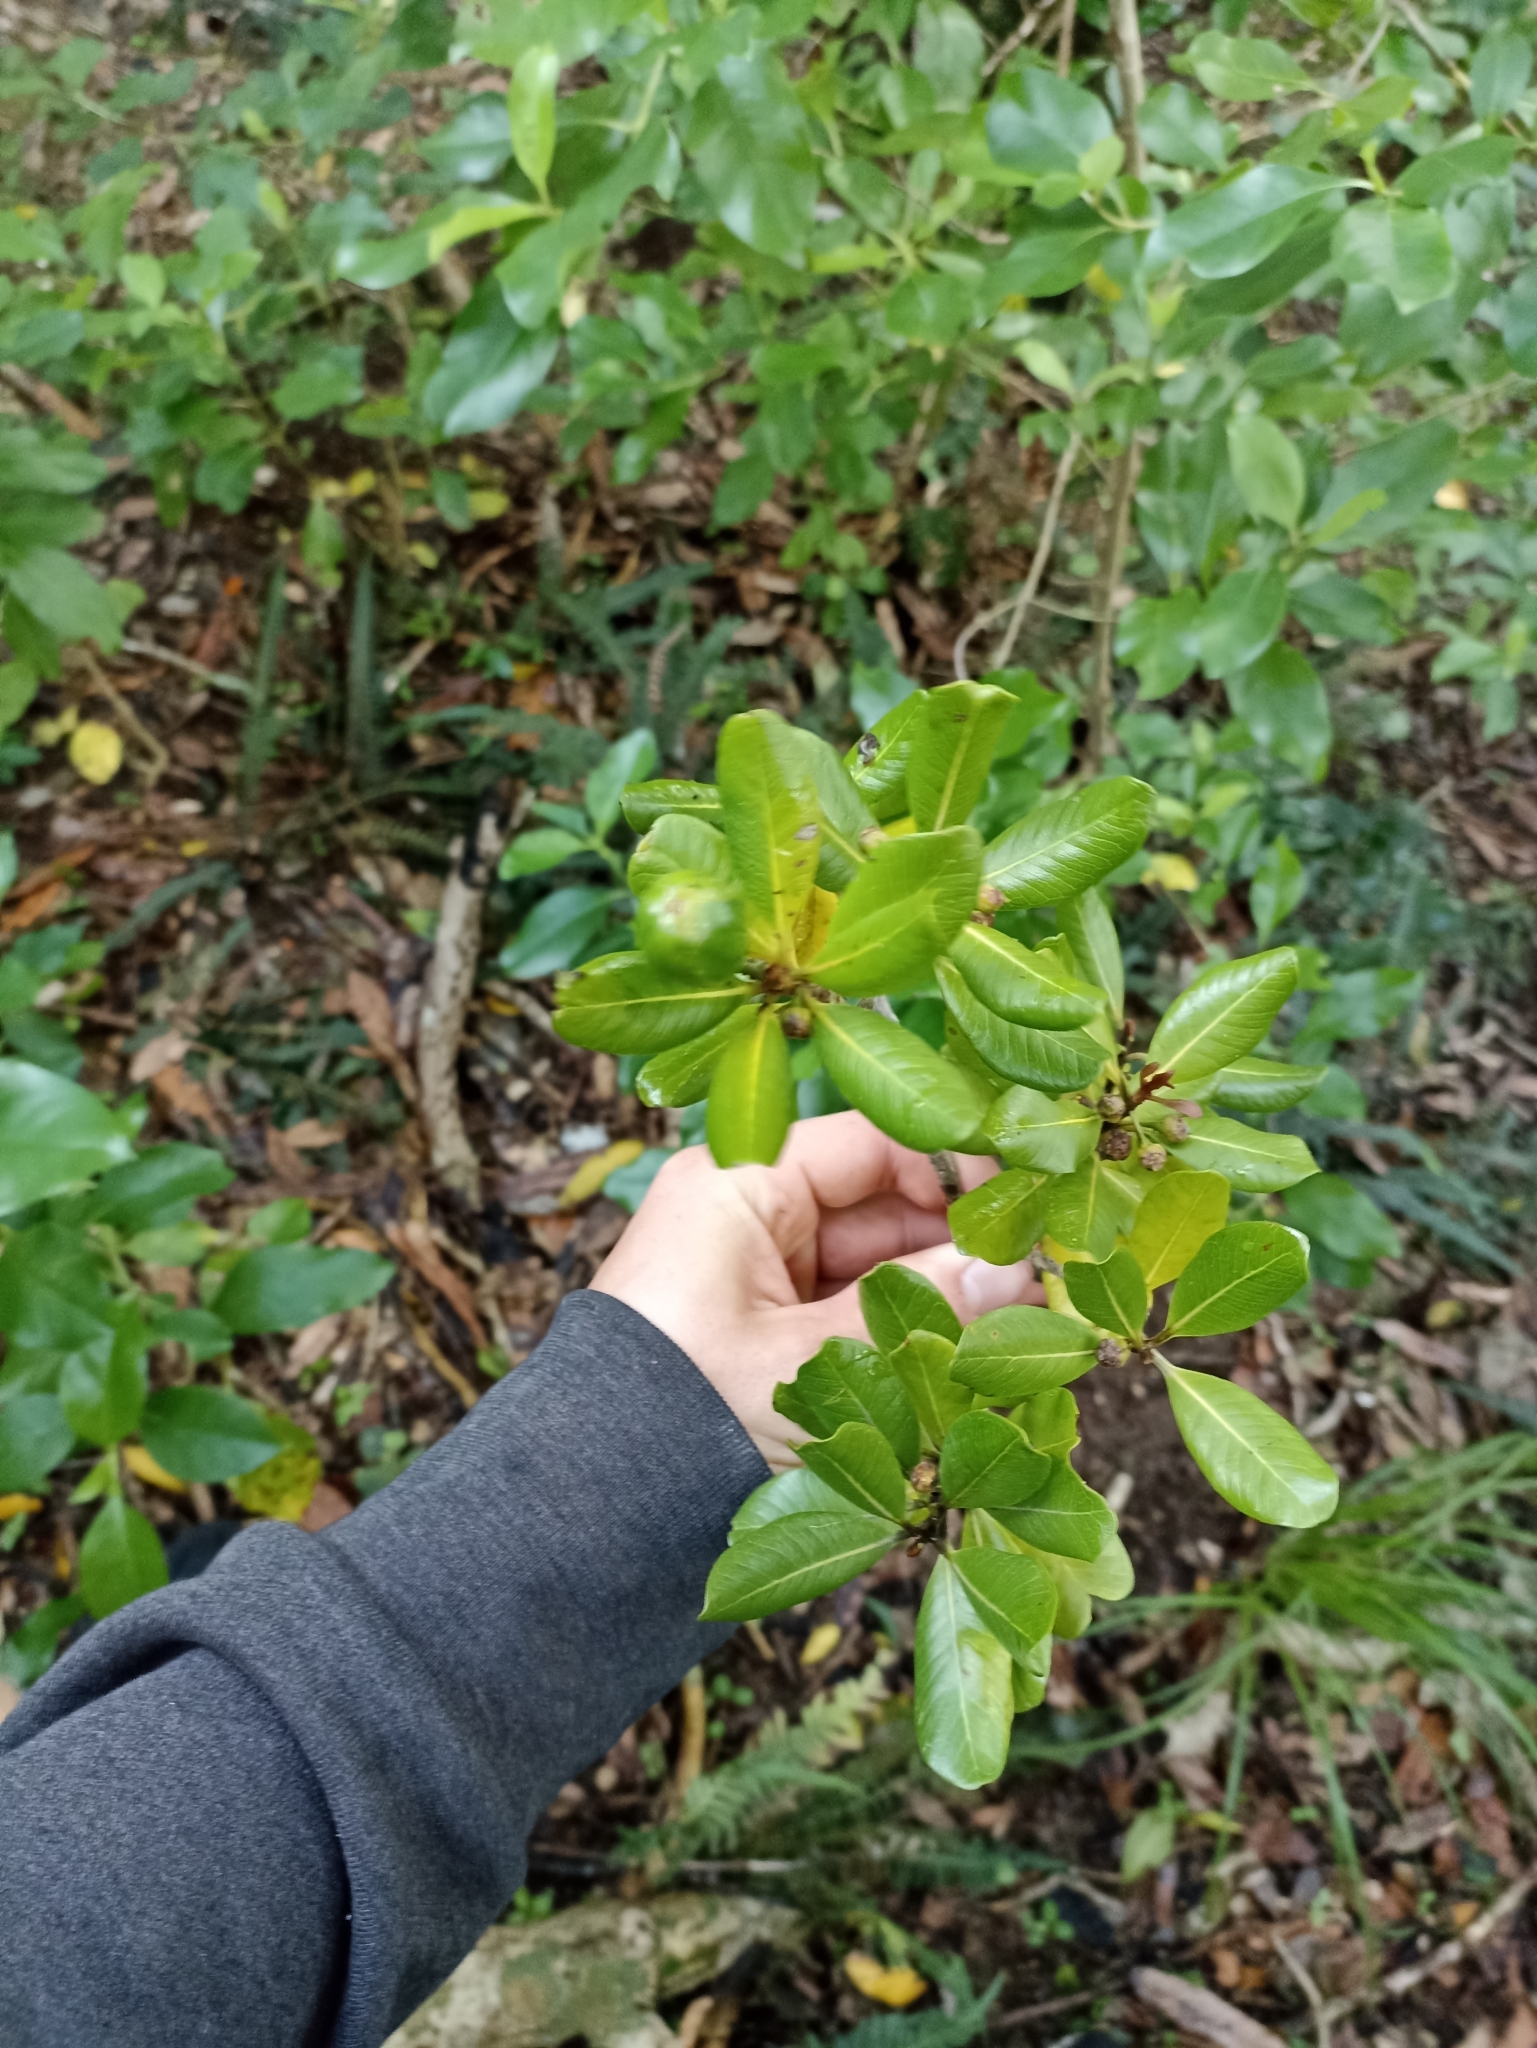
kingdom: Plantae
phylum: Tracheophyta
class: Magnoliopsida
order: Ericales
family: Sapotaceae
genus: Planchonella
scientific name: Planchonella costata
